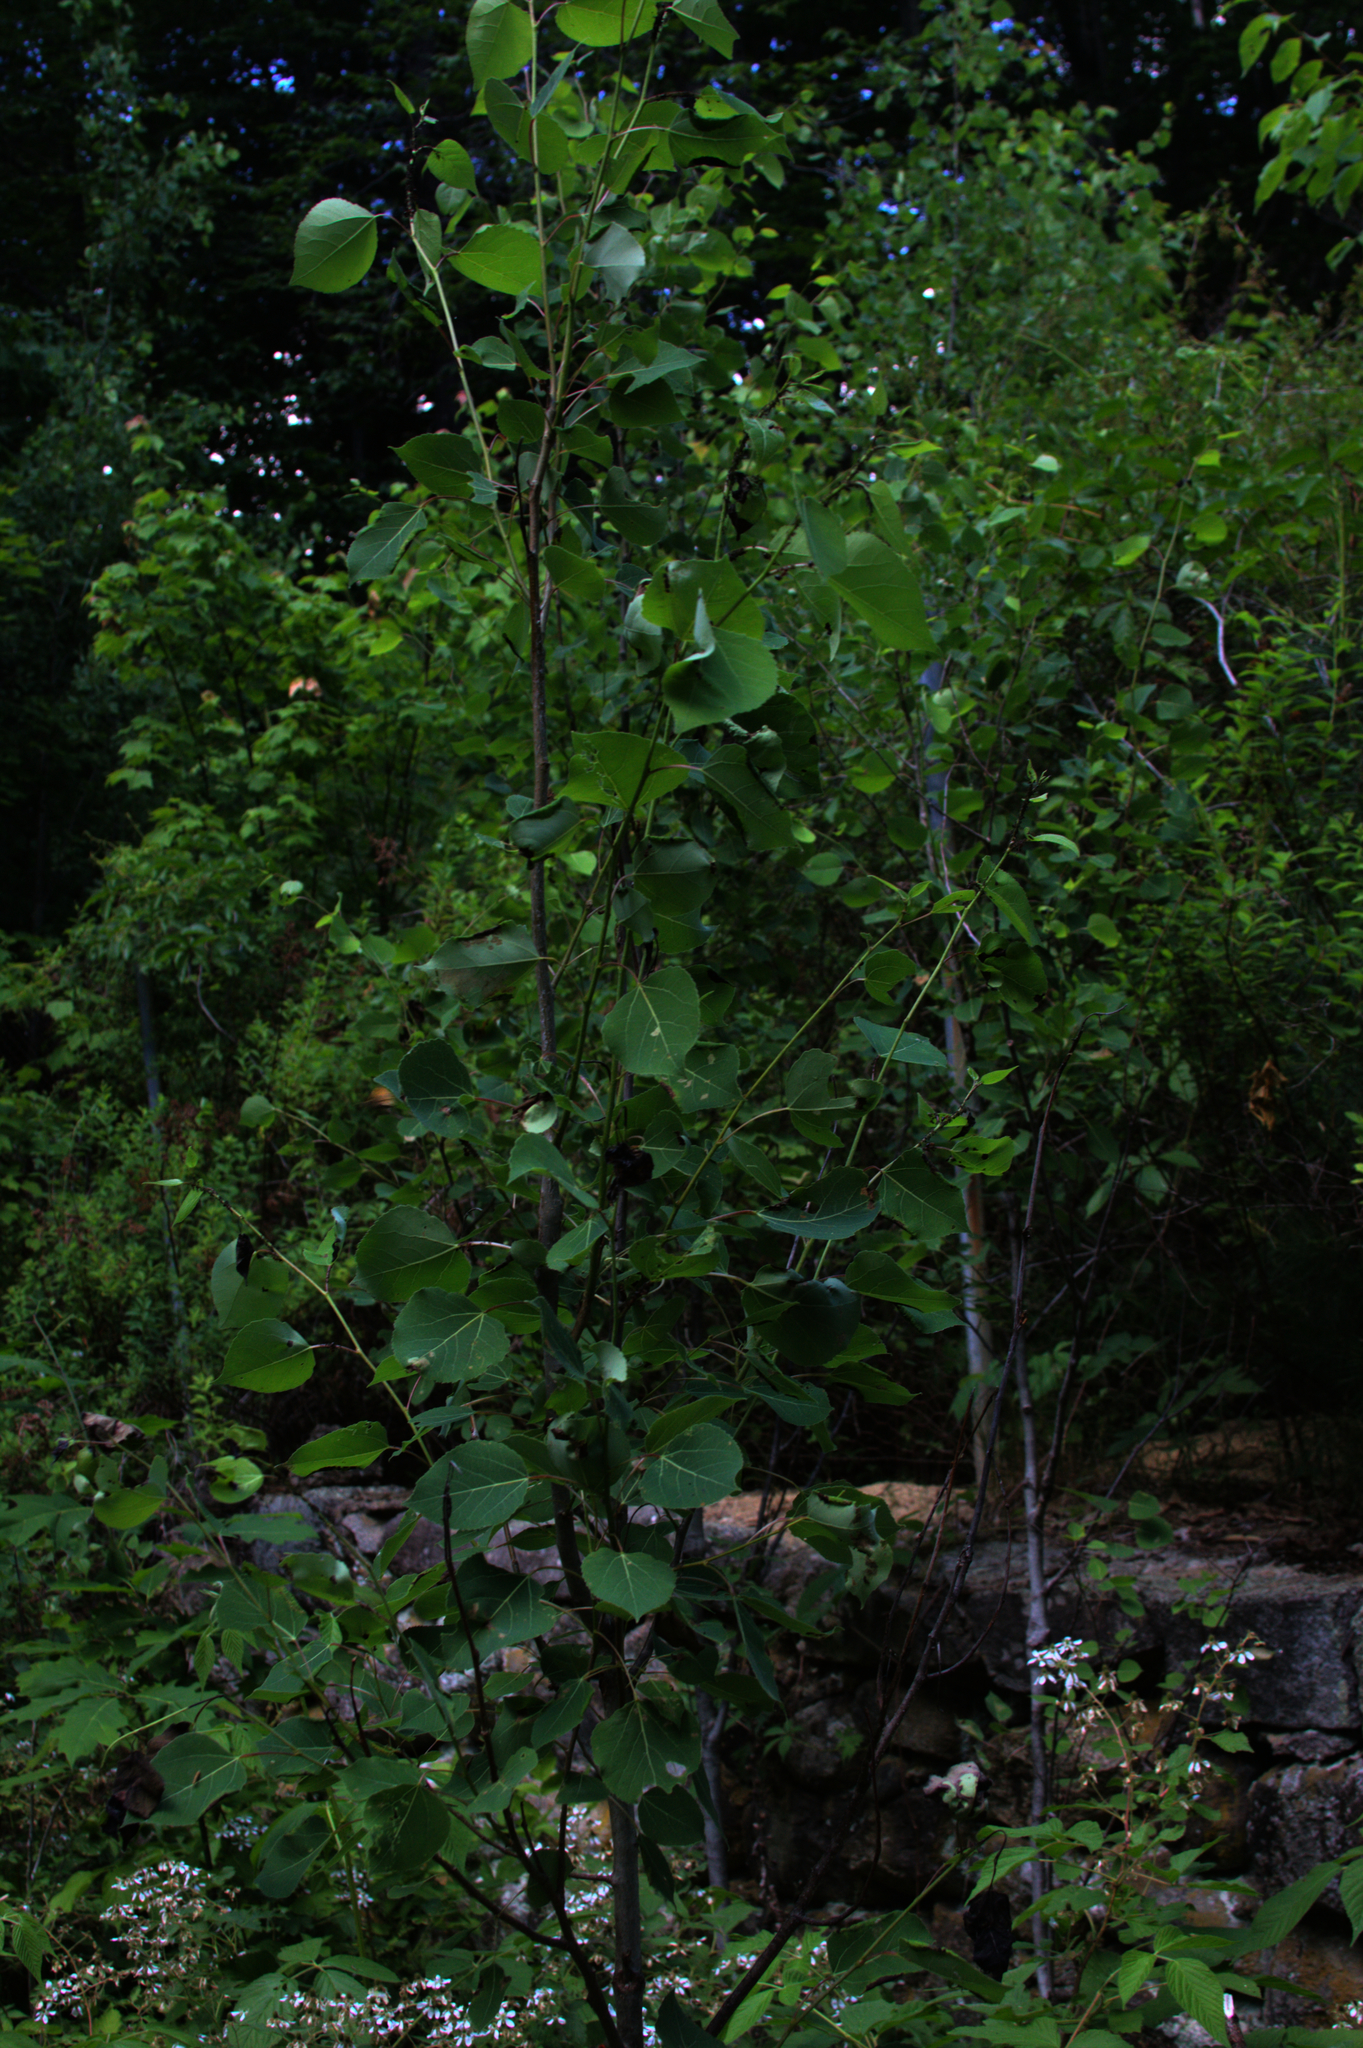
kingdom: Plantae
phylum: Tracheophyta
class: Magnoliopsida
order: Malpighiales
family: Salicaceae
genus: Populus
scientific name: Populus tremuloides
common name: Quaking aspen
